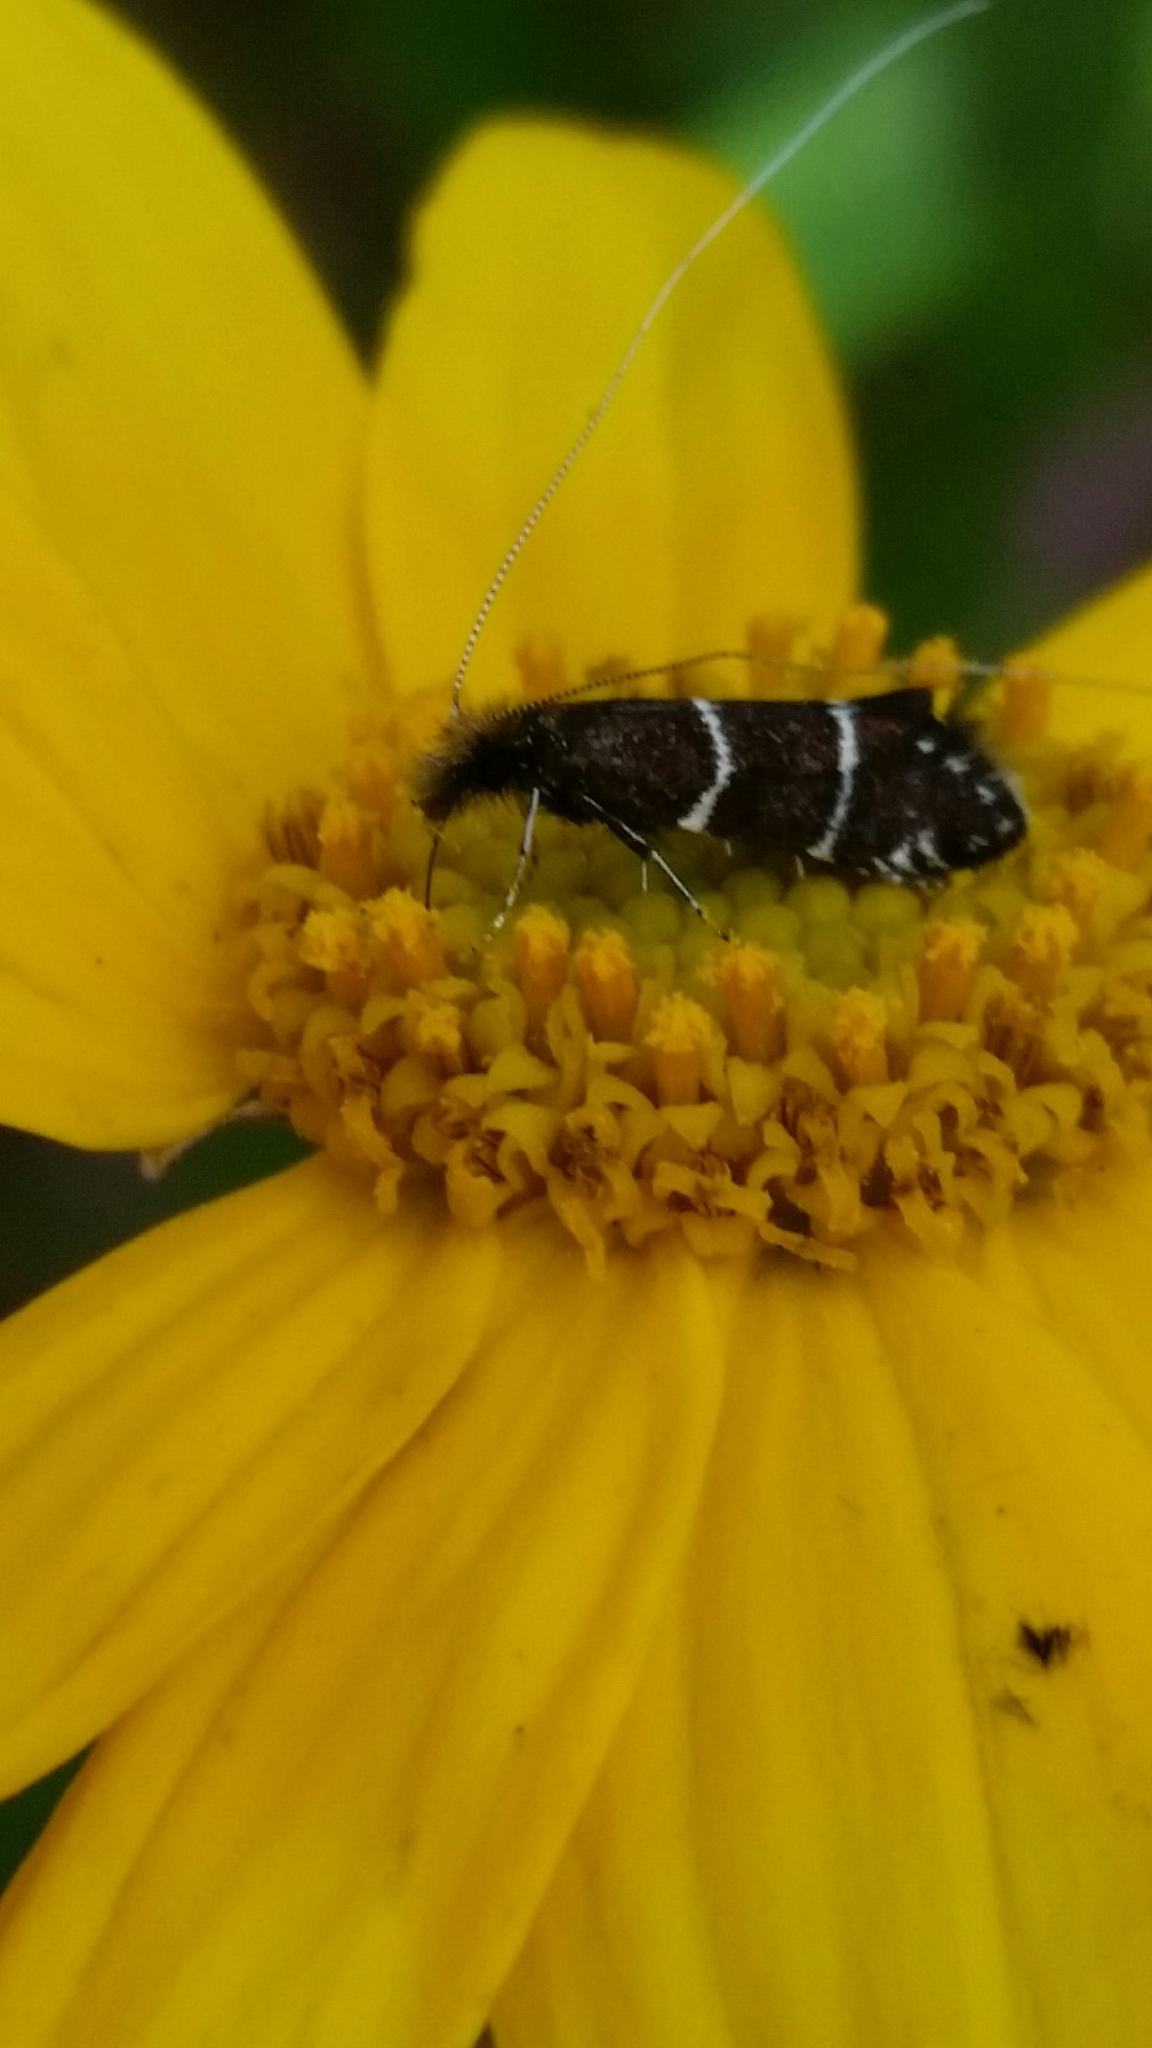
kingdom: Animalia
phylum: Arthropoda
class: Insecta
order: Lepidoptera
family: Adelidae
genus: Adela
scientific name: Adela septentrionella
